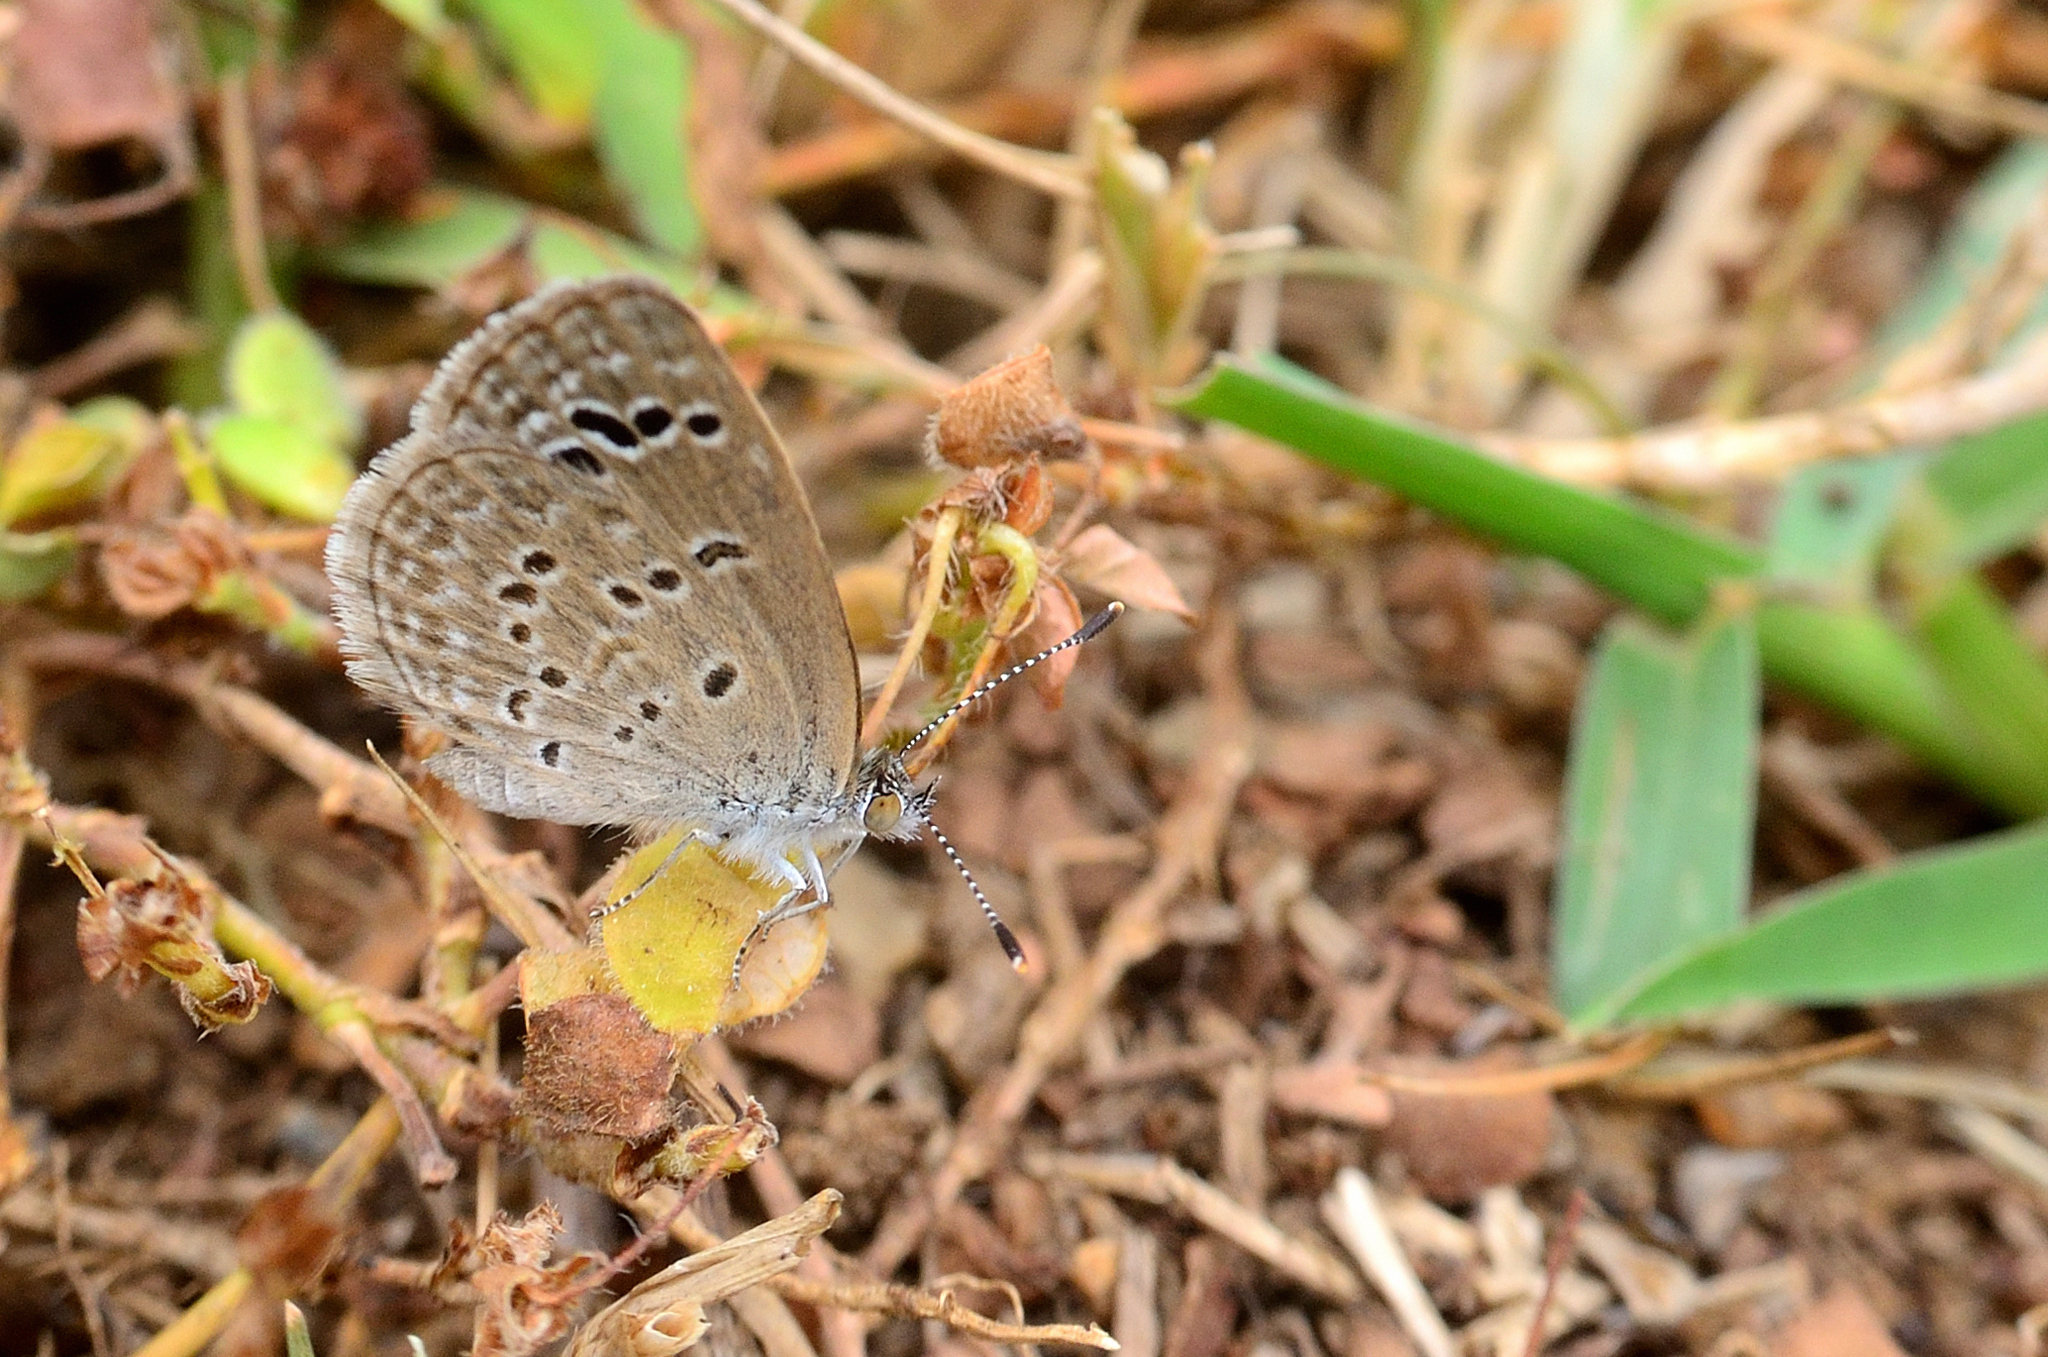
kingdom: Animalia
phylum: Arthropoda
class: Insecta
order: Lepidoptera
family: Lycaenidae
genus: Zizina
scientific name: Zizina otis
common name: Lesser grass blue
